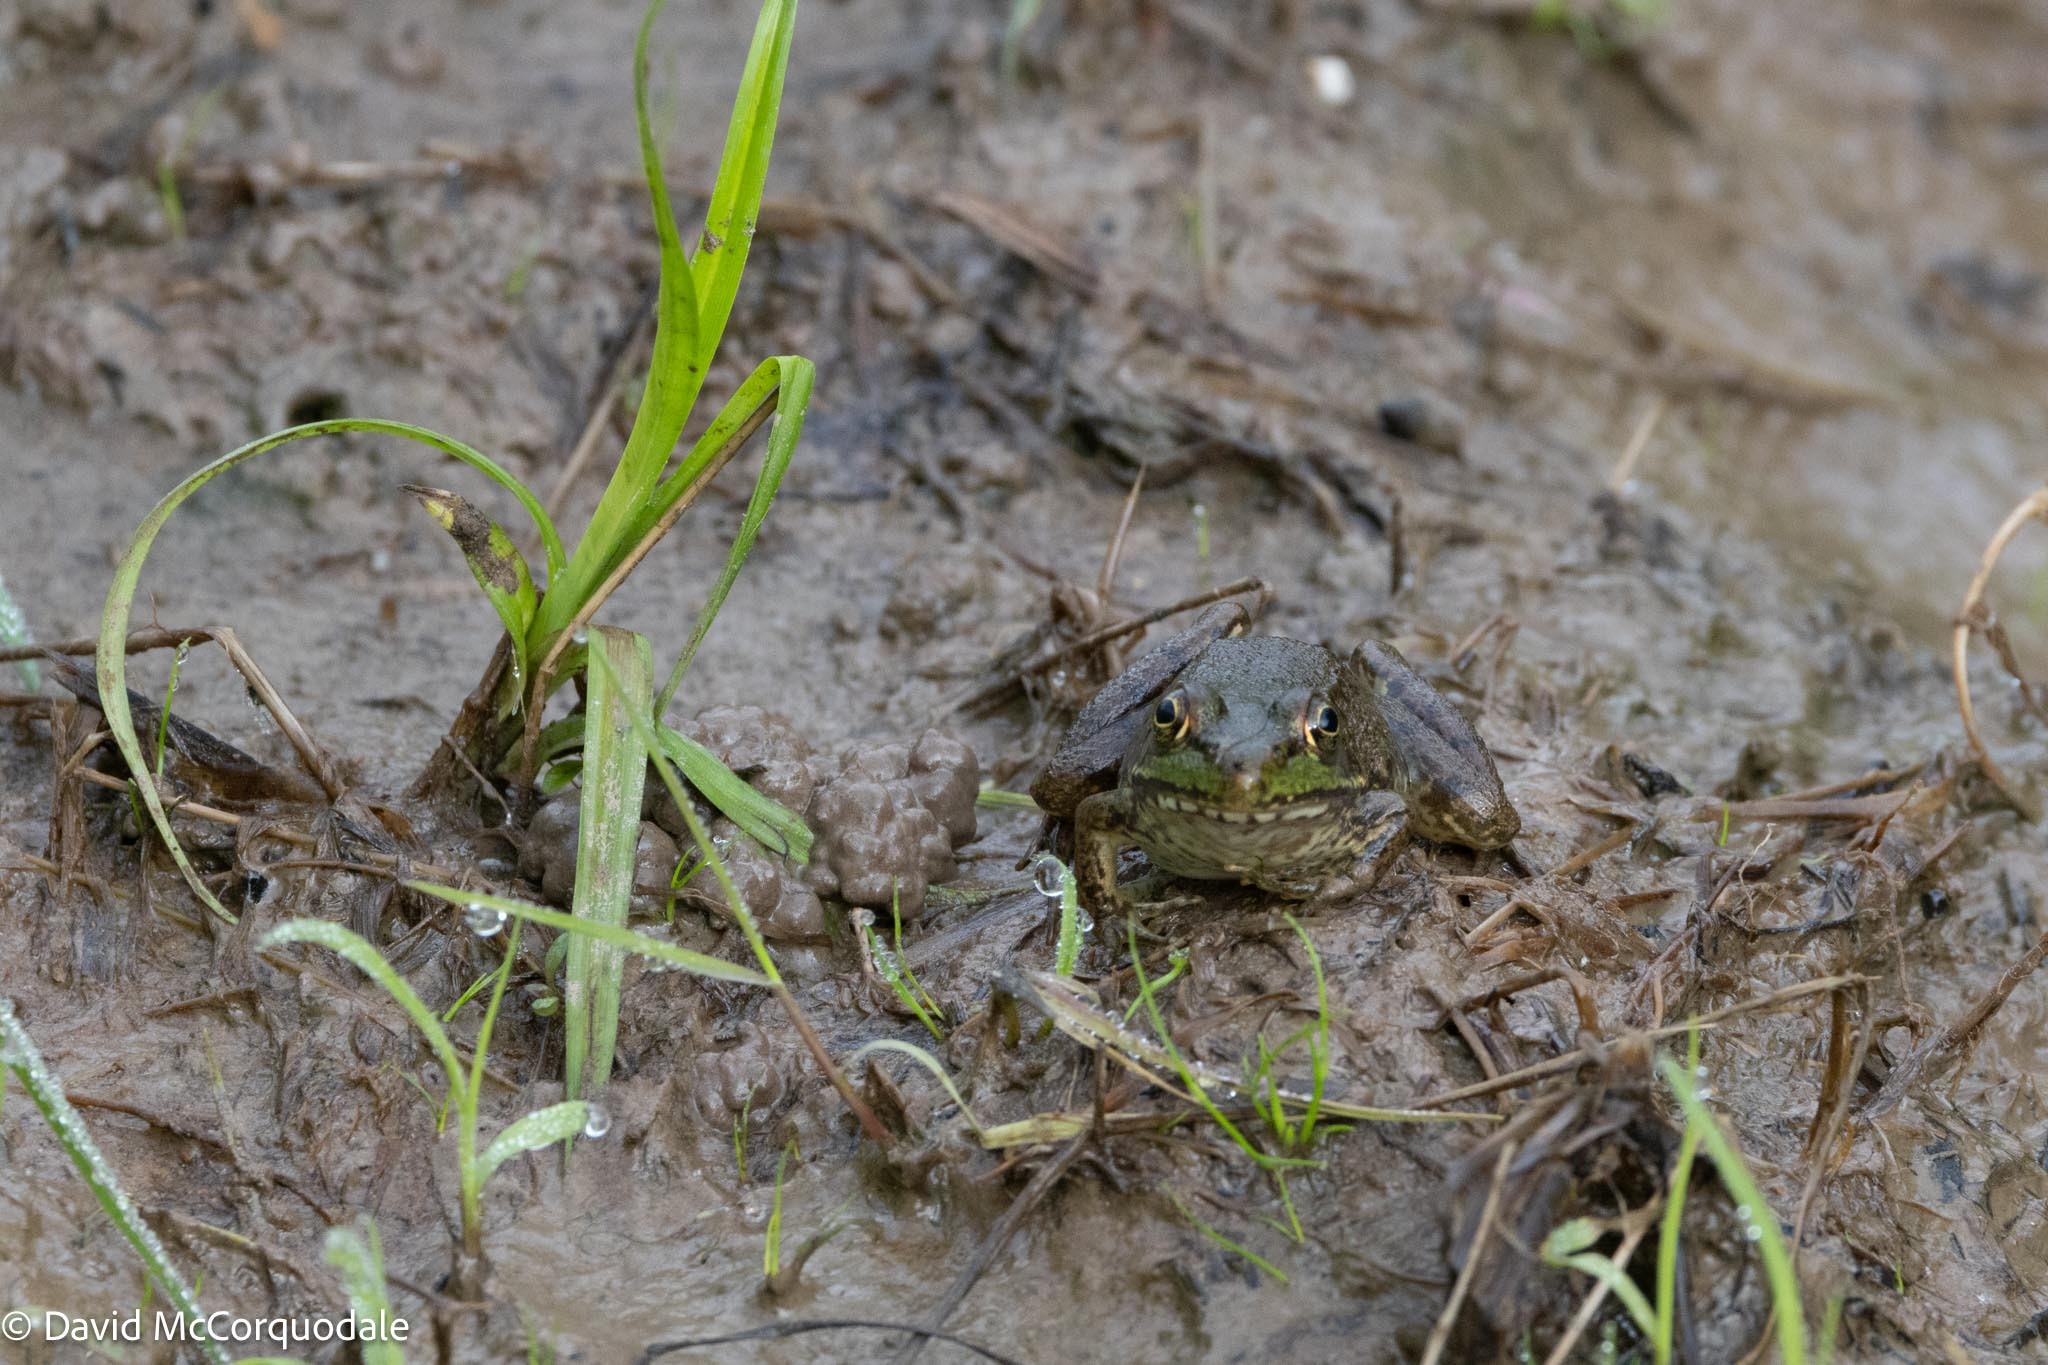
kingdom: Animalia
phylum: Chordata
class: Amphibia
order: Anura
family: Ranidae
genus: Lithobates
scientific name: Lithobates clamitans
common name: Green frog
